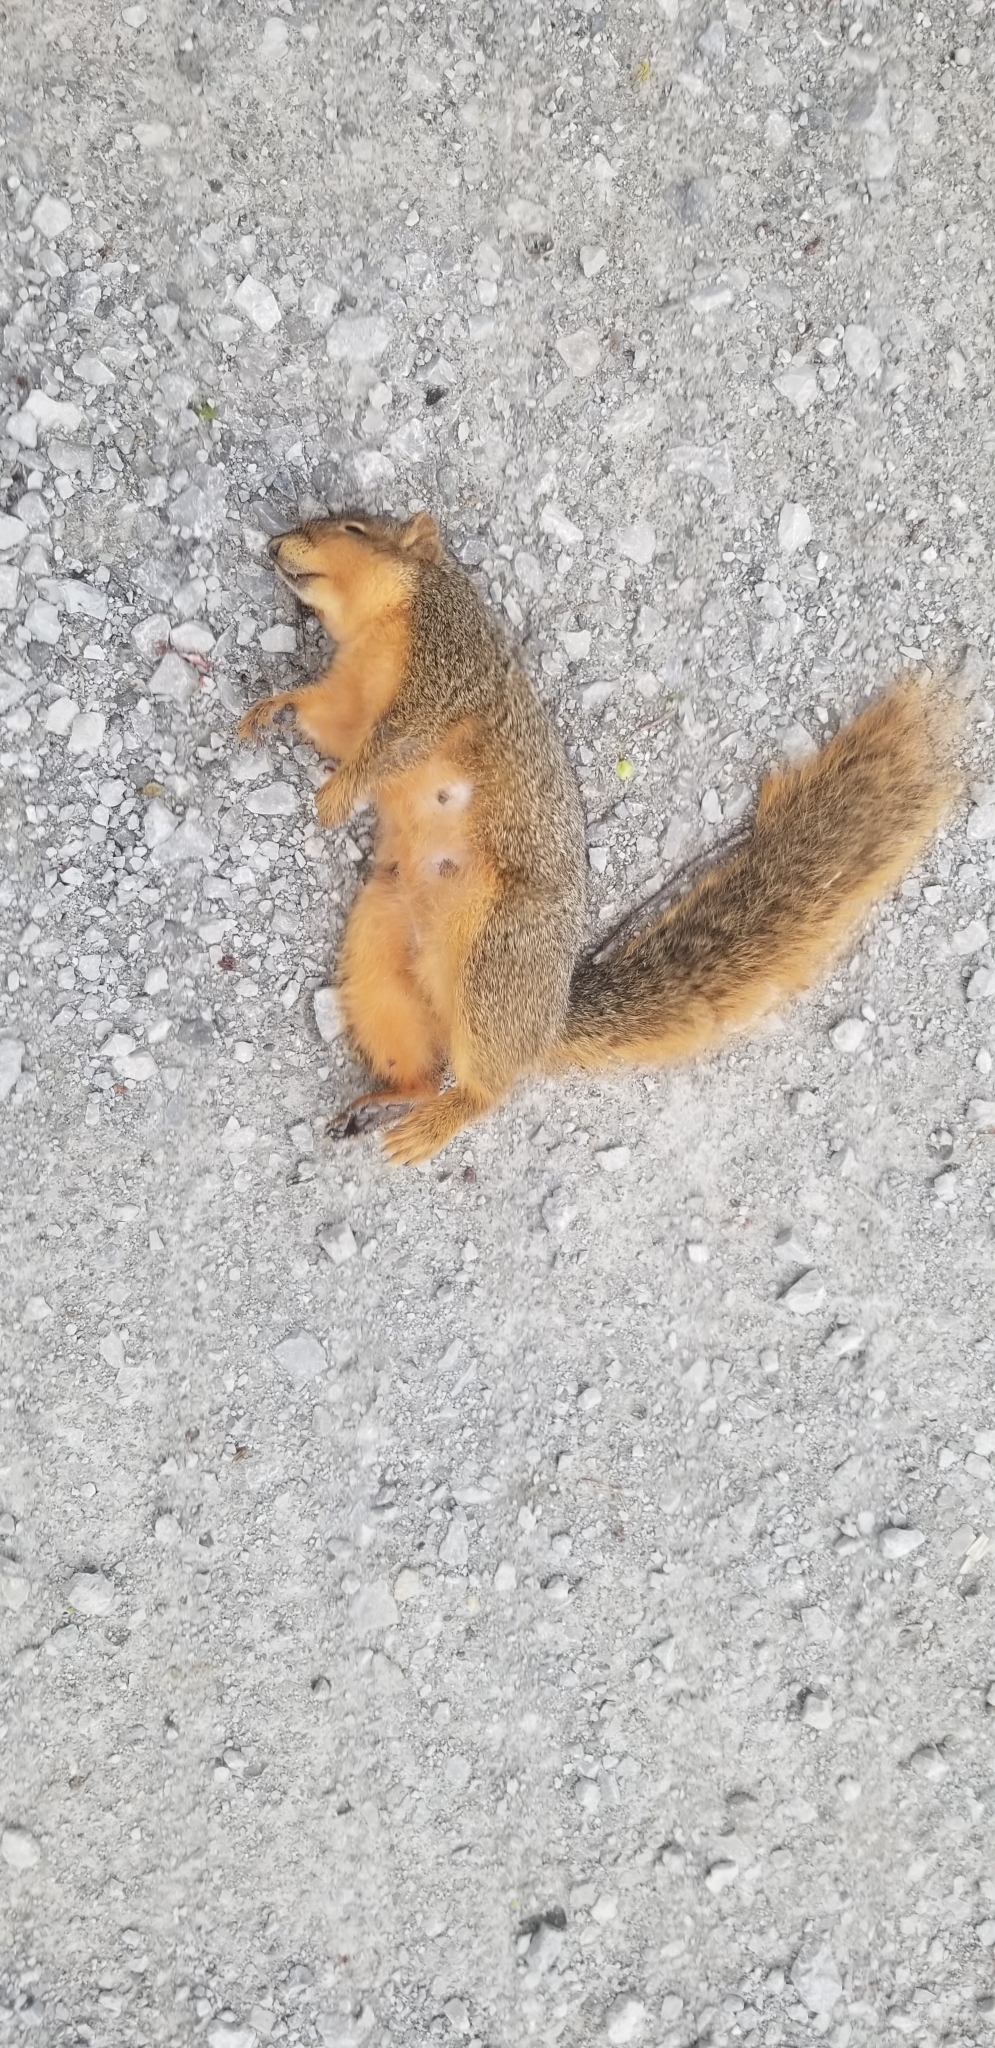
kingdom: Animalia
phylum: Chordata
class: Mammalia
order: Rodentia
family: Sciuridae
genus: Sciurus
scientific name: Sciurus niger
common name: Fox squirrel
